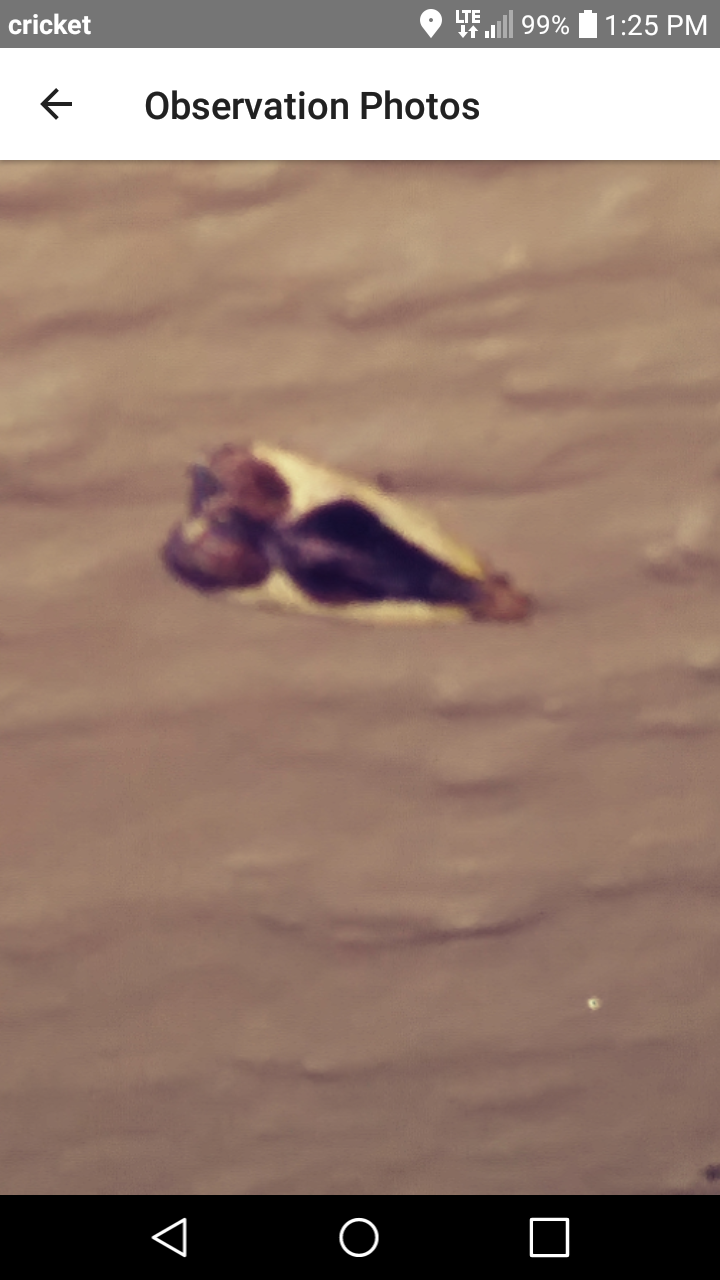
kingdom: Animalia
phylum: Arthropoda
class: Insecta
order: Lepidoptera
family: Gelechiidae
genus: Dichomeris
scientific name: Dichomeris flavocostella
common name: Cream-edged dichomeris moth
